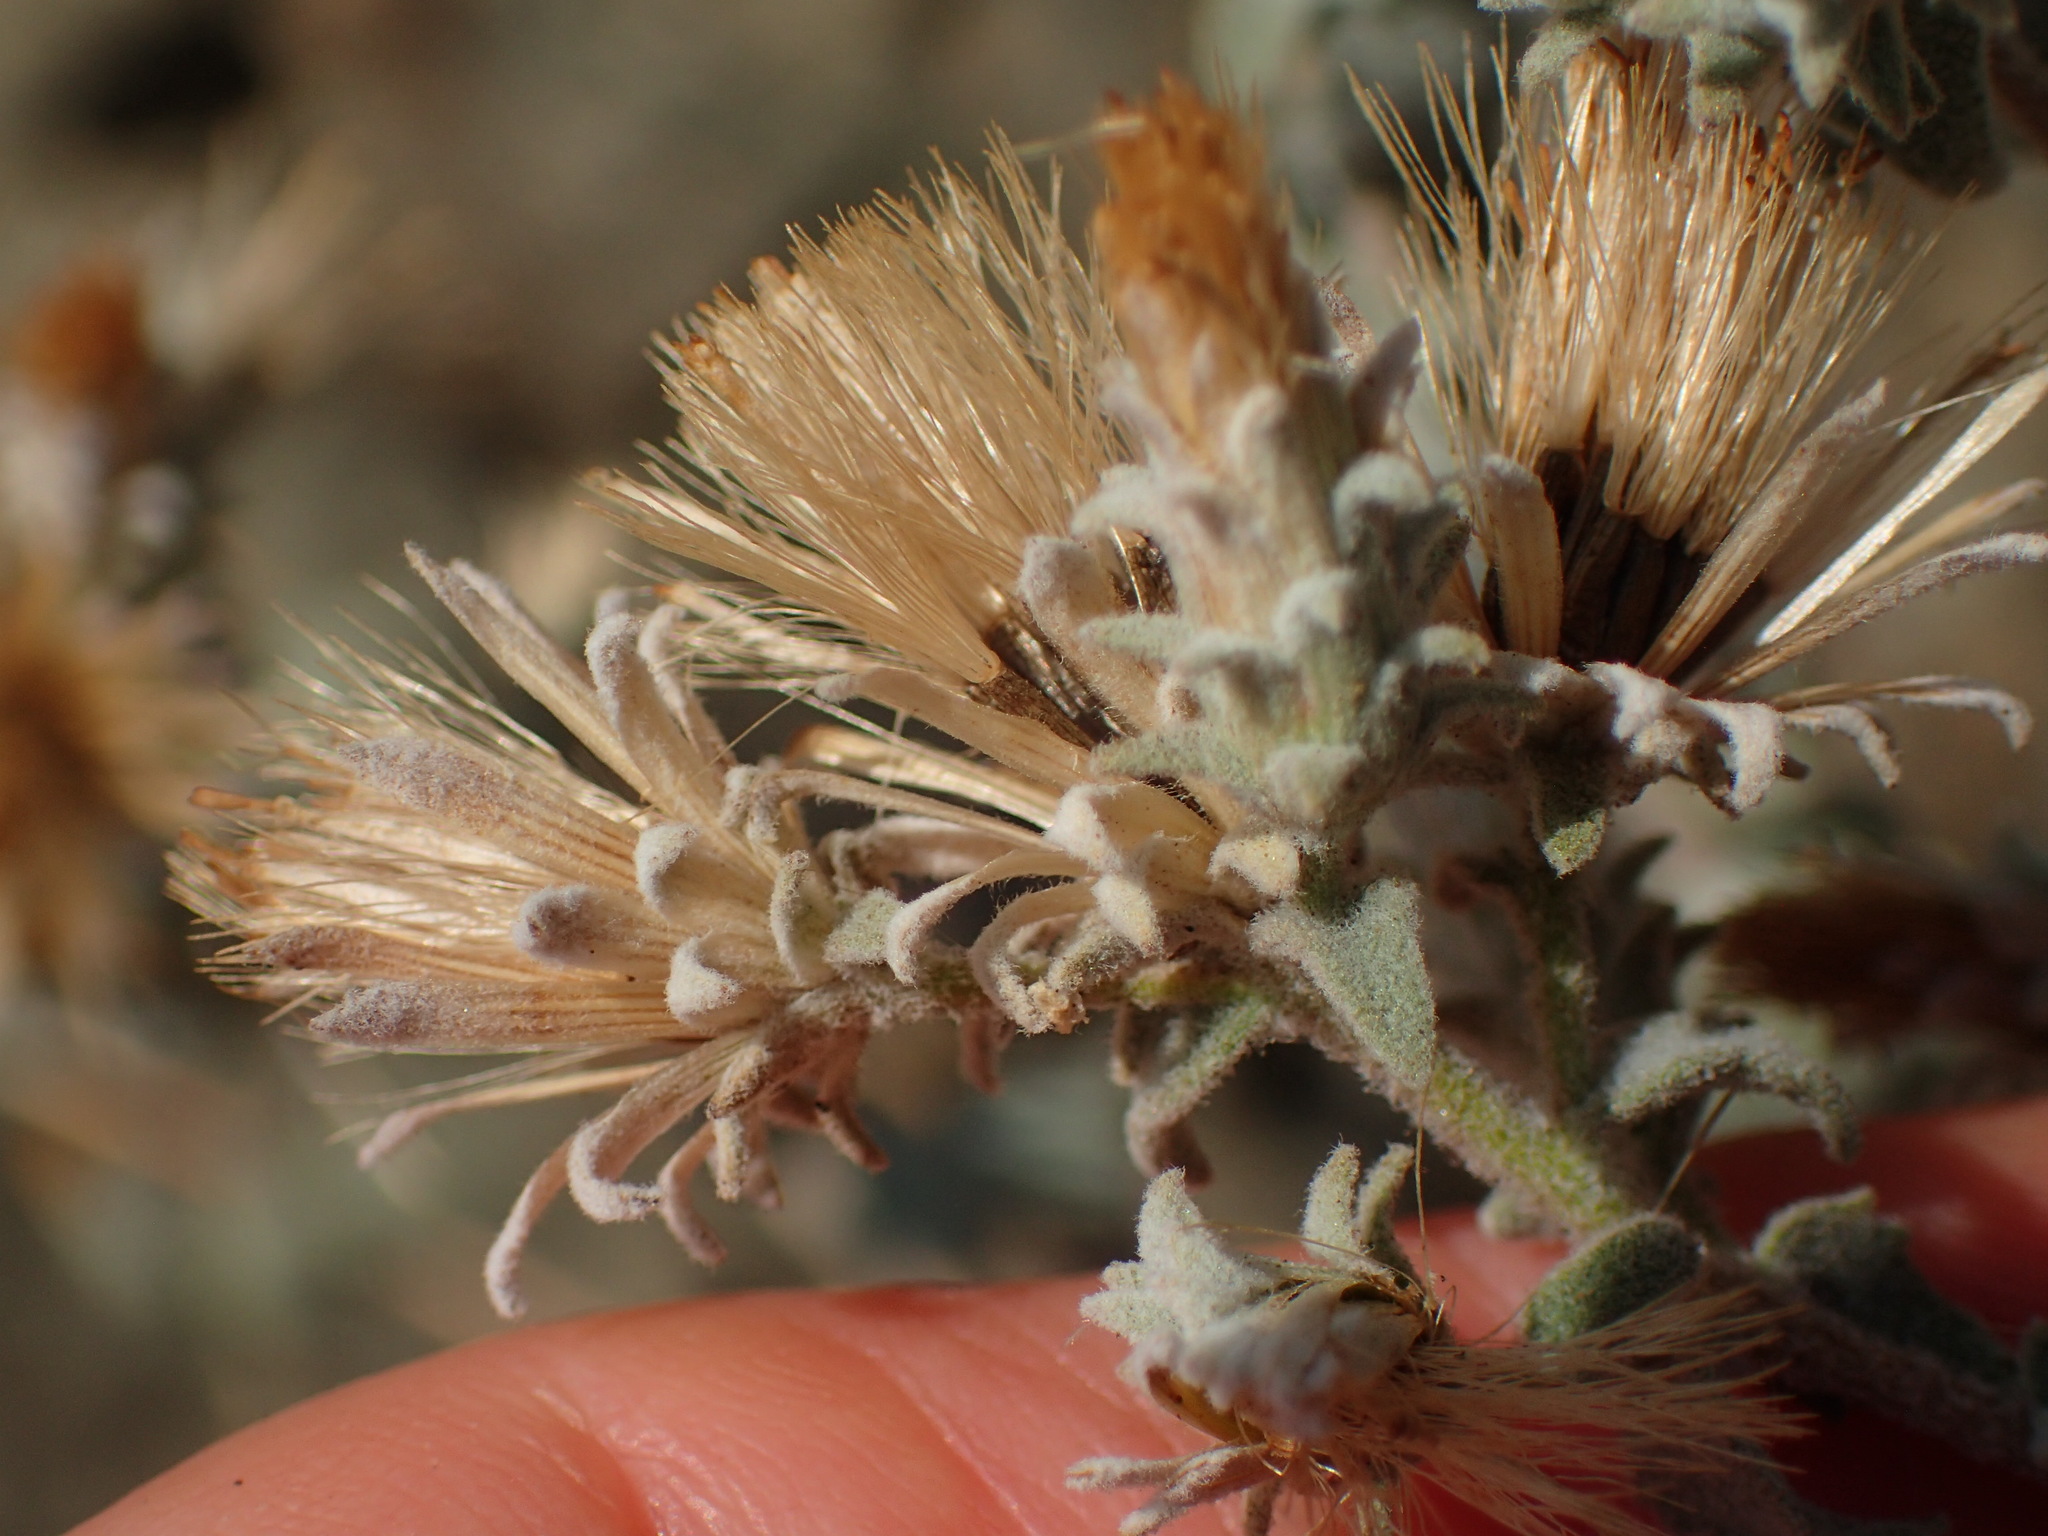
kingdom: Plantae
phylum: Tracheophyta
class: Magnoliopsida
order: Asterales
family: Asteraceae
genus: Brickellia
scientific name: Brickellia nevinii
